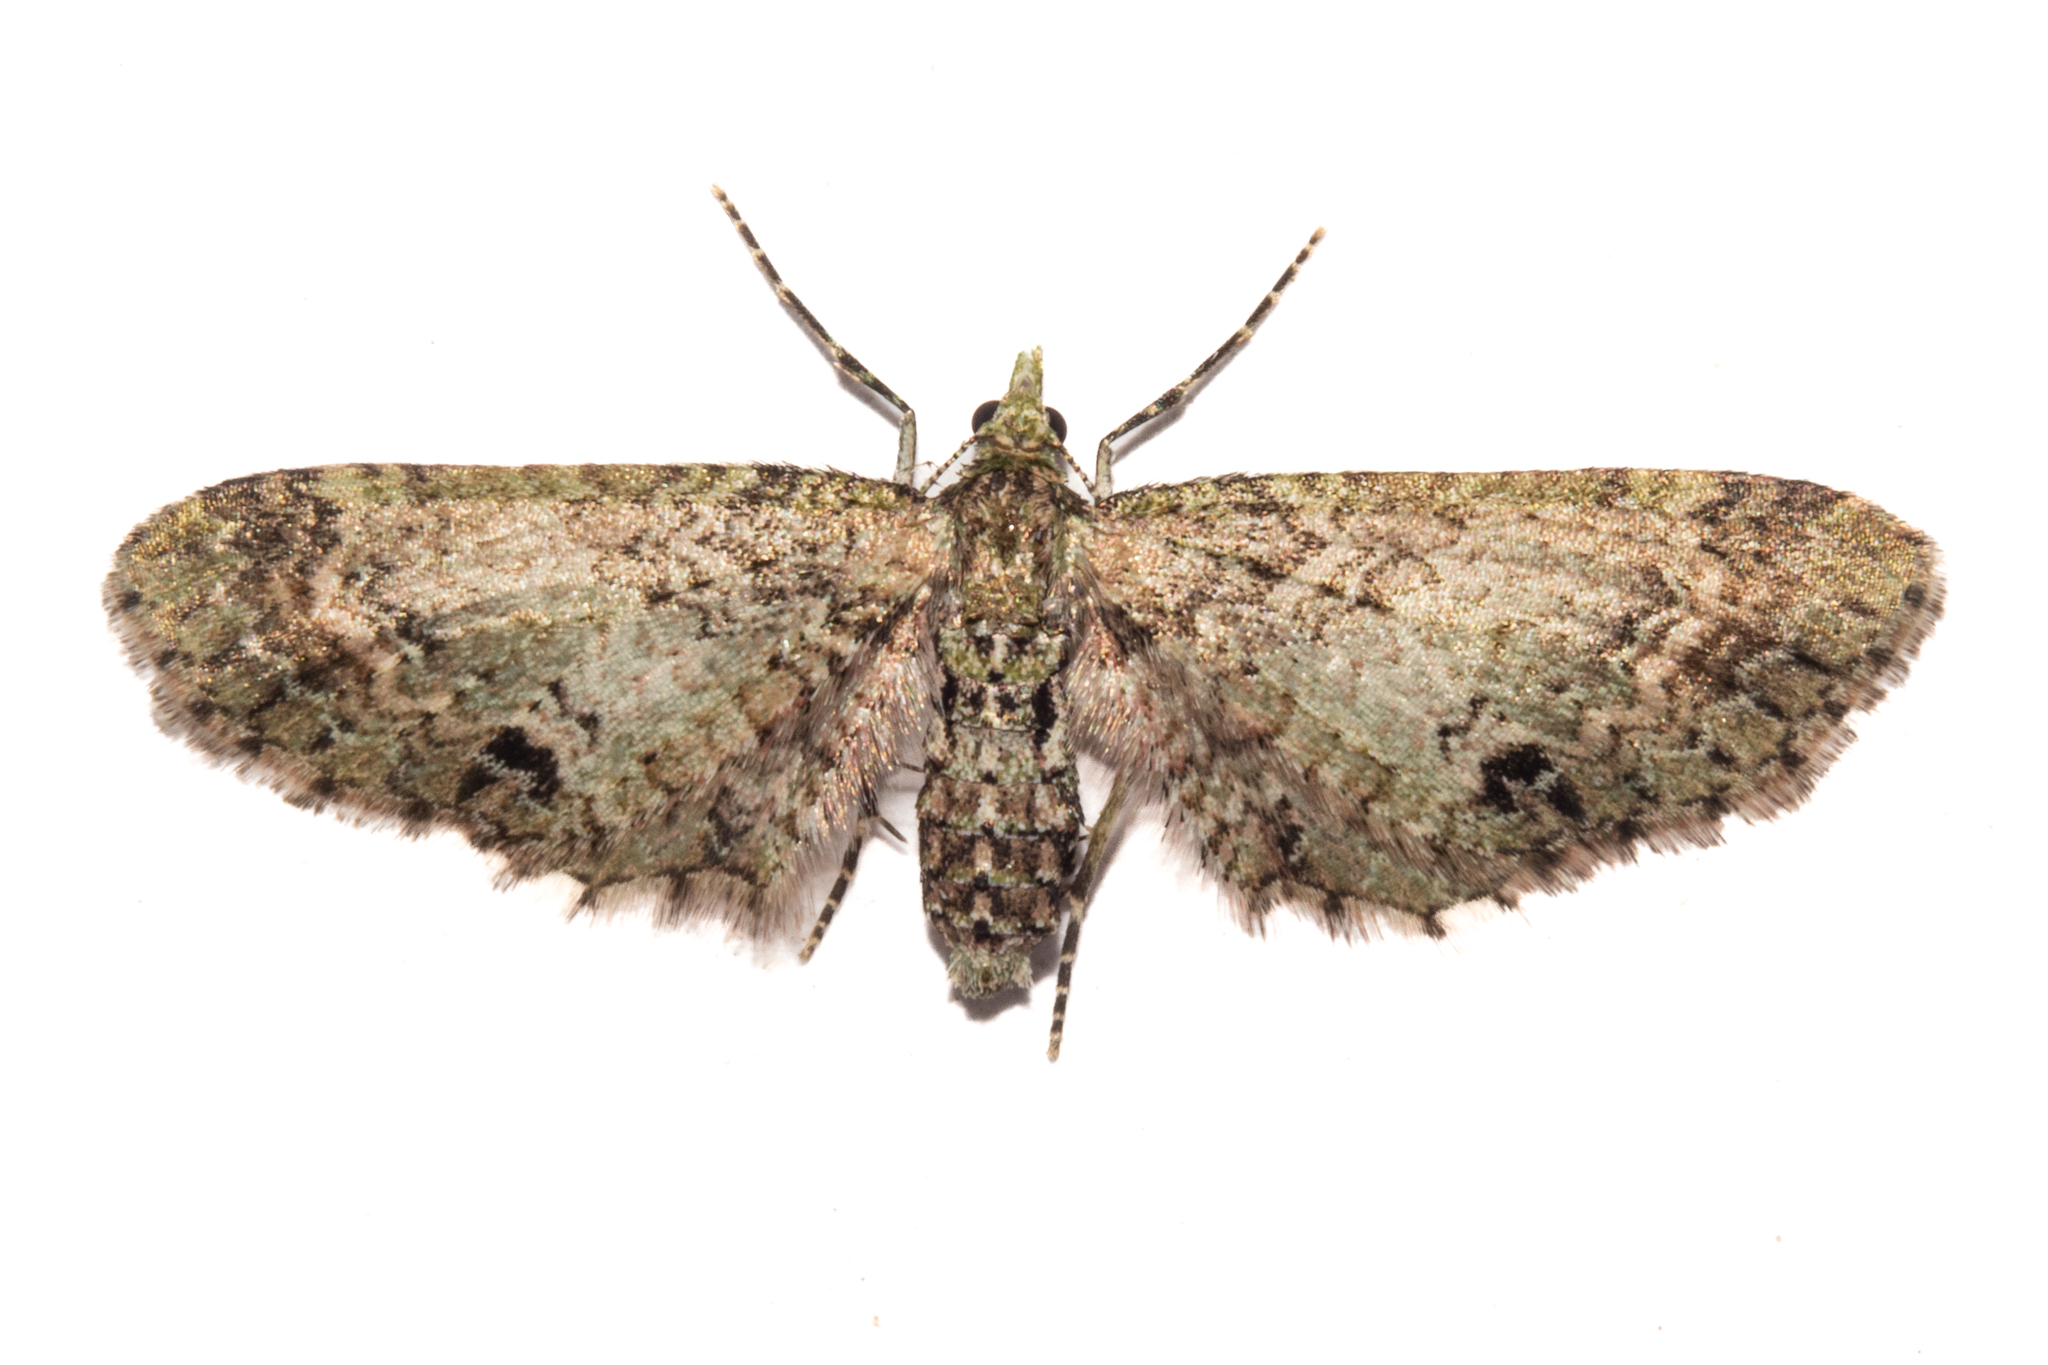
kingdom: Animalia
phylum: Arthropoda
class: Insecta
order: Lepidoptera
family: Geometridae
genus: Pasiphila
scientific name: Pasiphila cotinaea
